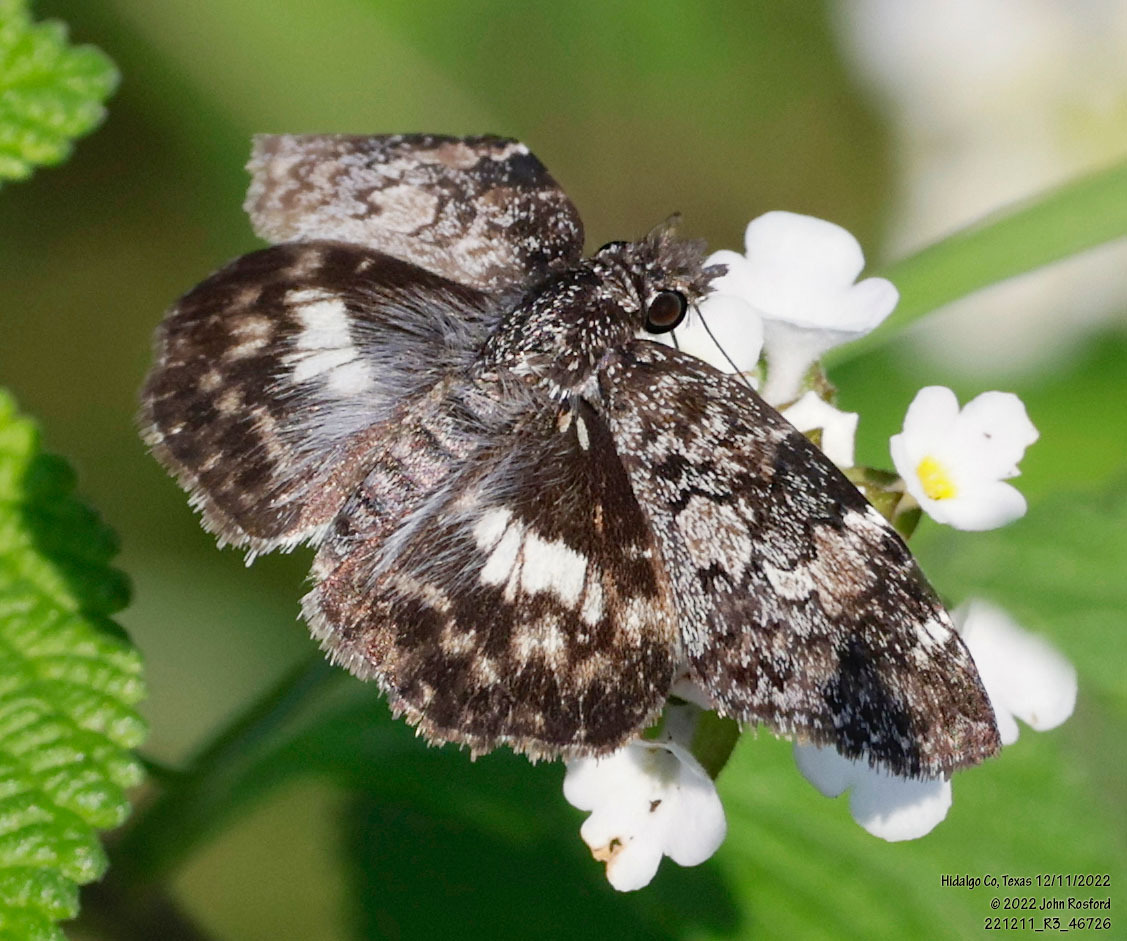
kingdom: Animalia
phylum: Arthropoda
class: Insecta
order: Lepidoptera
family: Hesperiidae
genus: Chiothion
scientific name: Chiothion georgina
